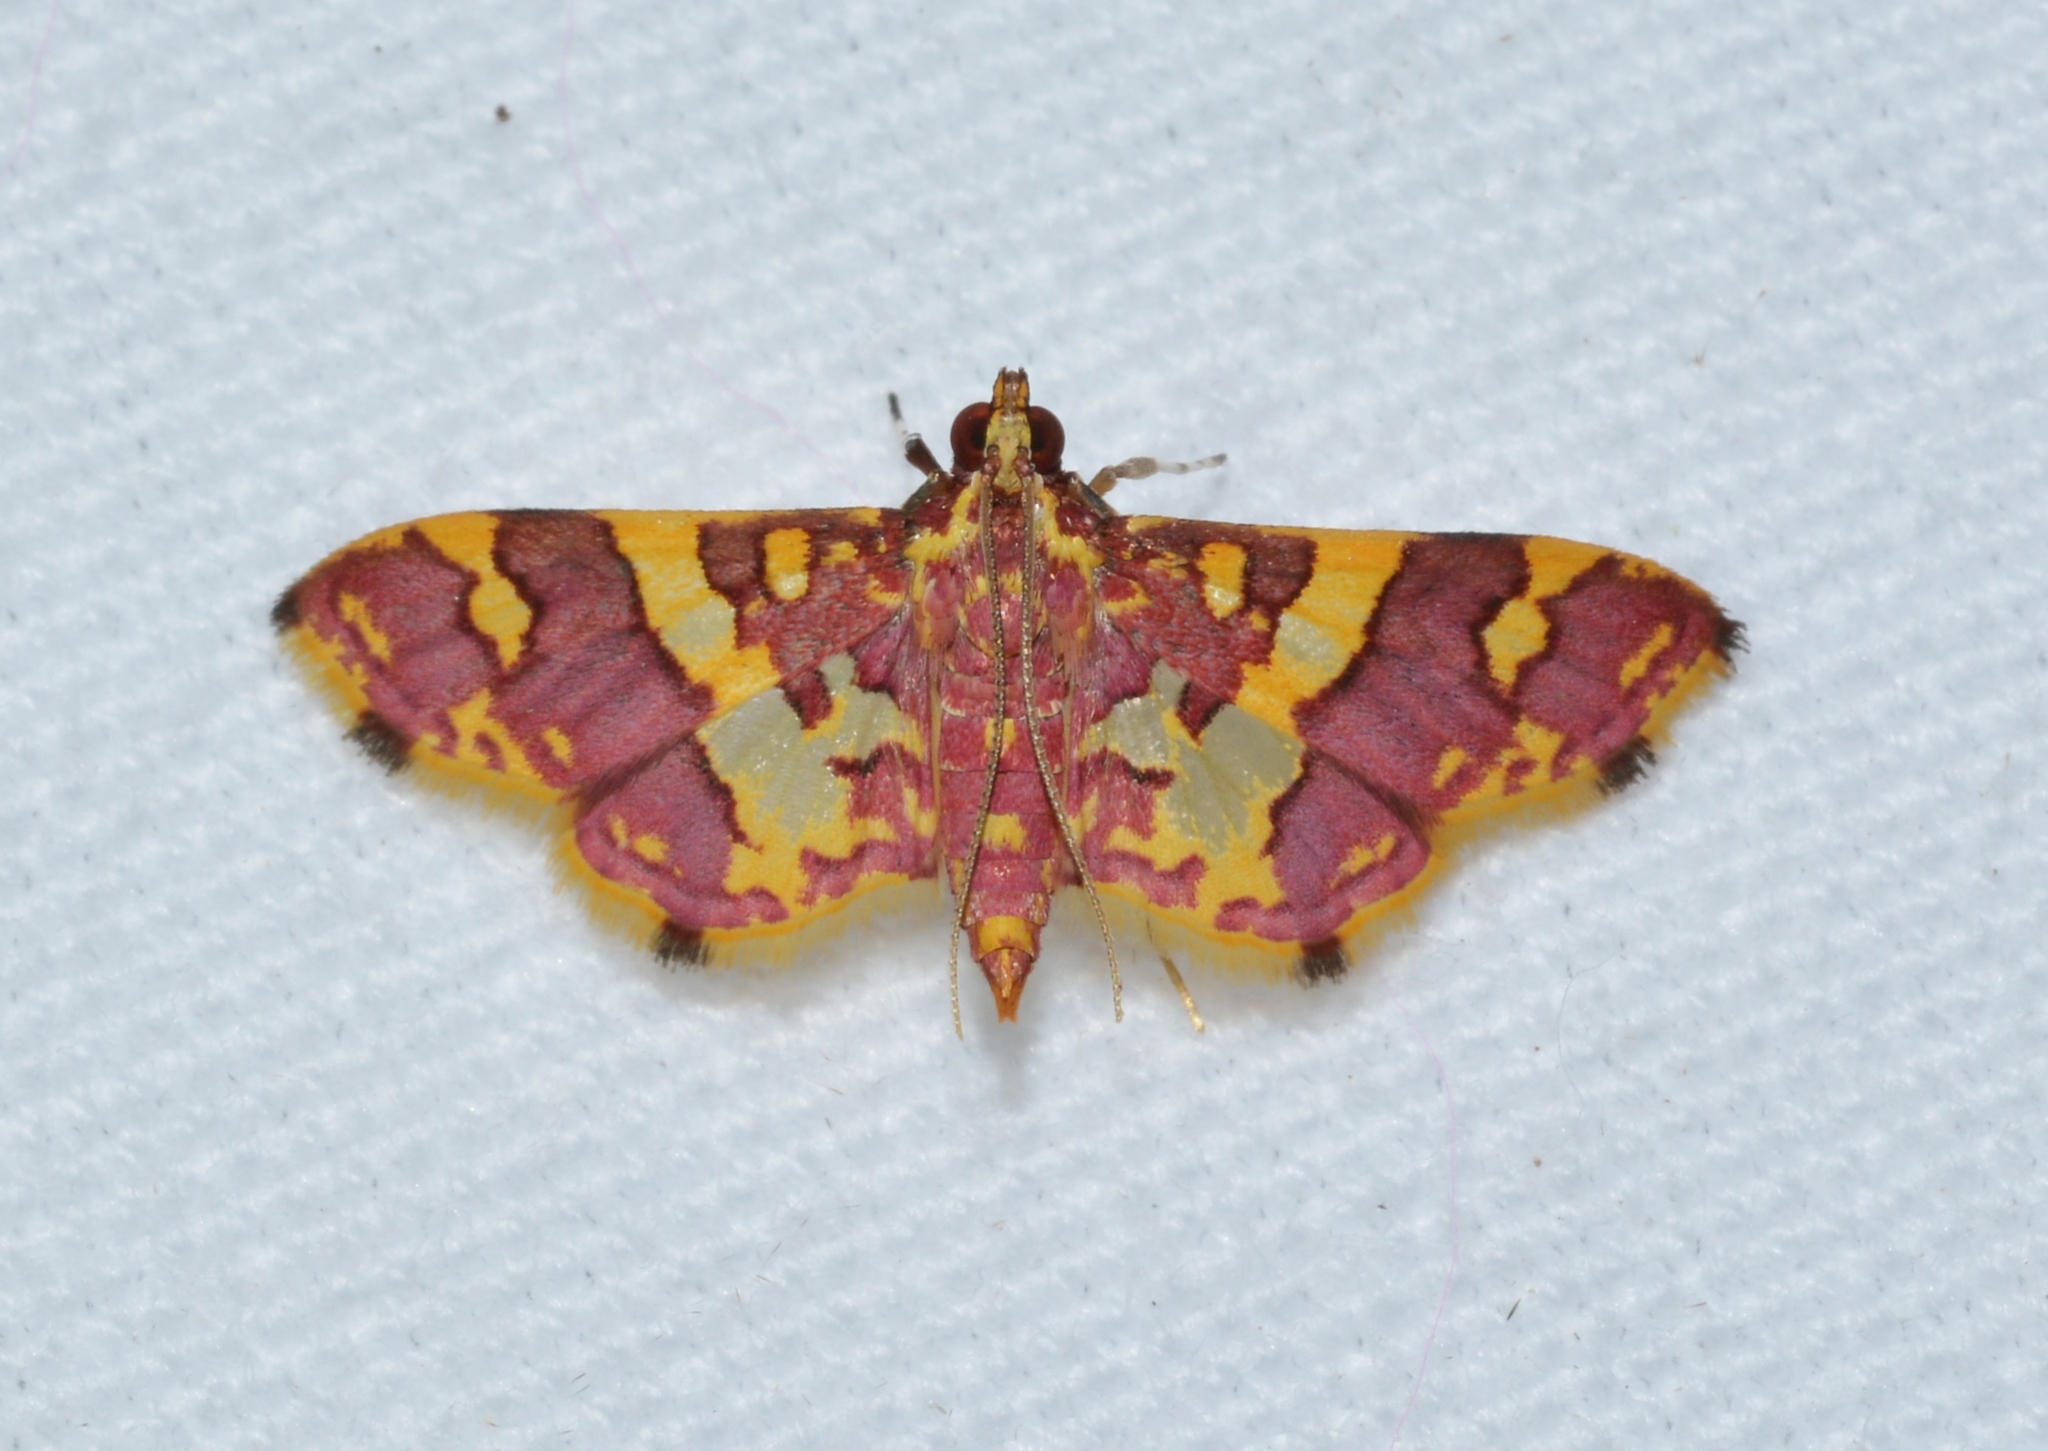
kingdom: Animalia
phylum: Arthropoda
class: Insecta
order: Lepidoptera
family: Crambidae
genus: Trithyris
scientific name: Trithyris Prenesta rubrocinctalis
